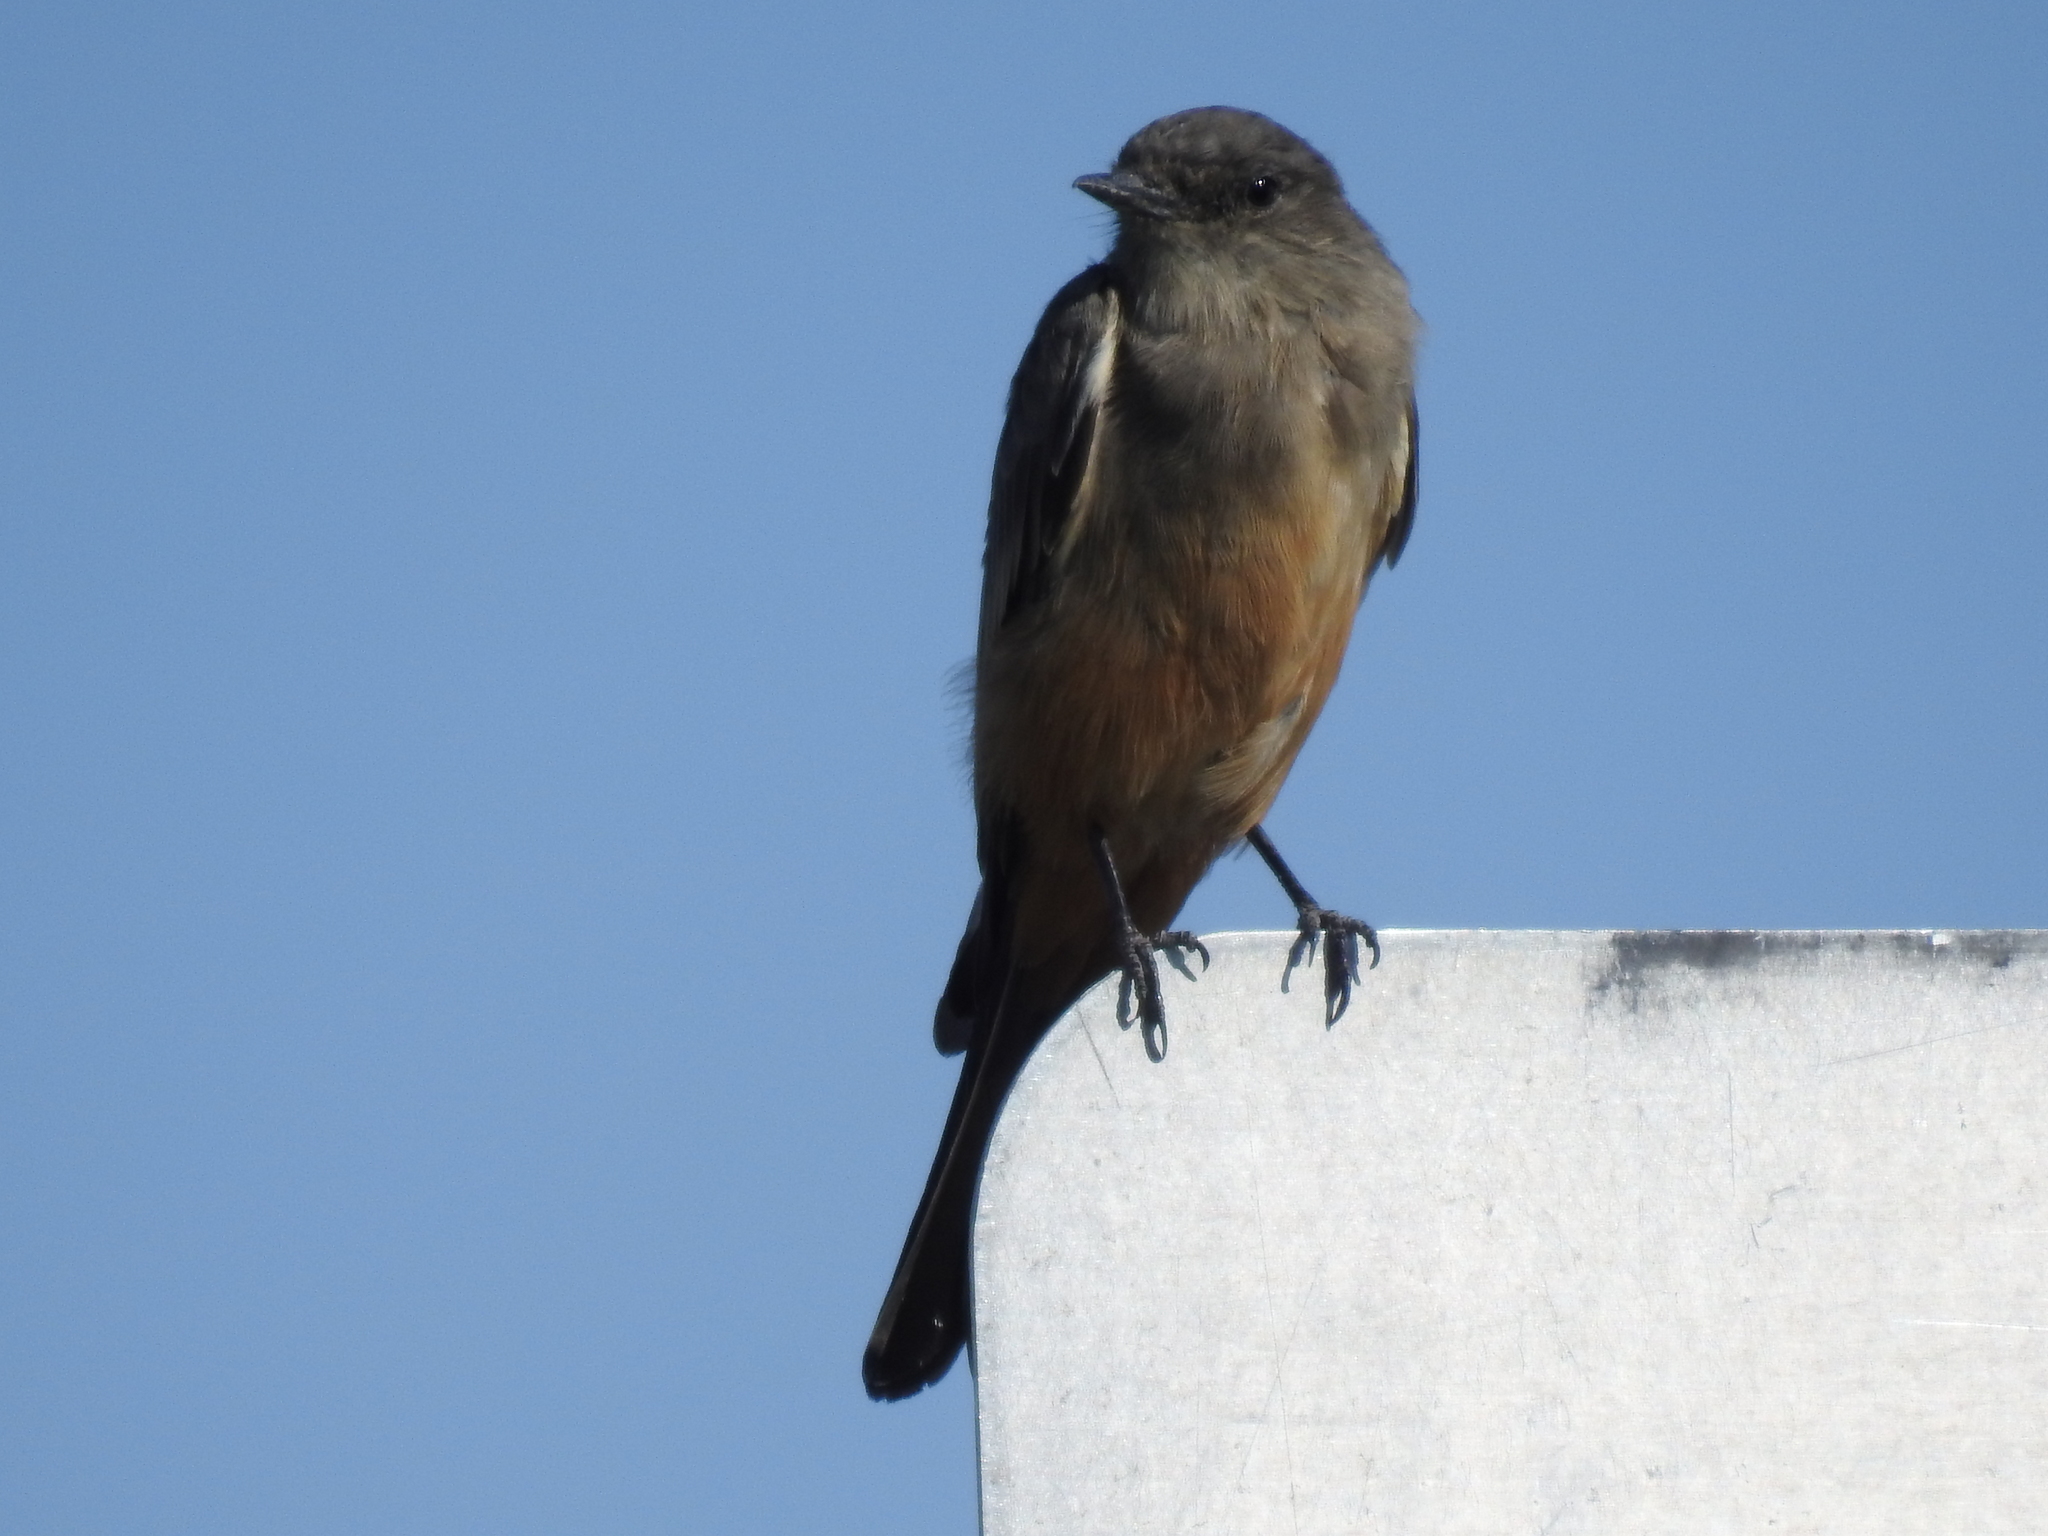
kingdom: Animalia
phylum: Chordata
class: Aves
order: Passeriformes
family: Tyrannidae
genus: Sayornis
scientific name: Sayornis saya
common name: Say's phoebe
